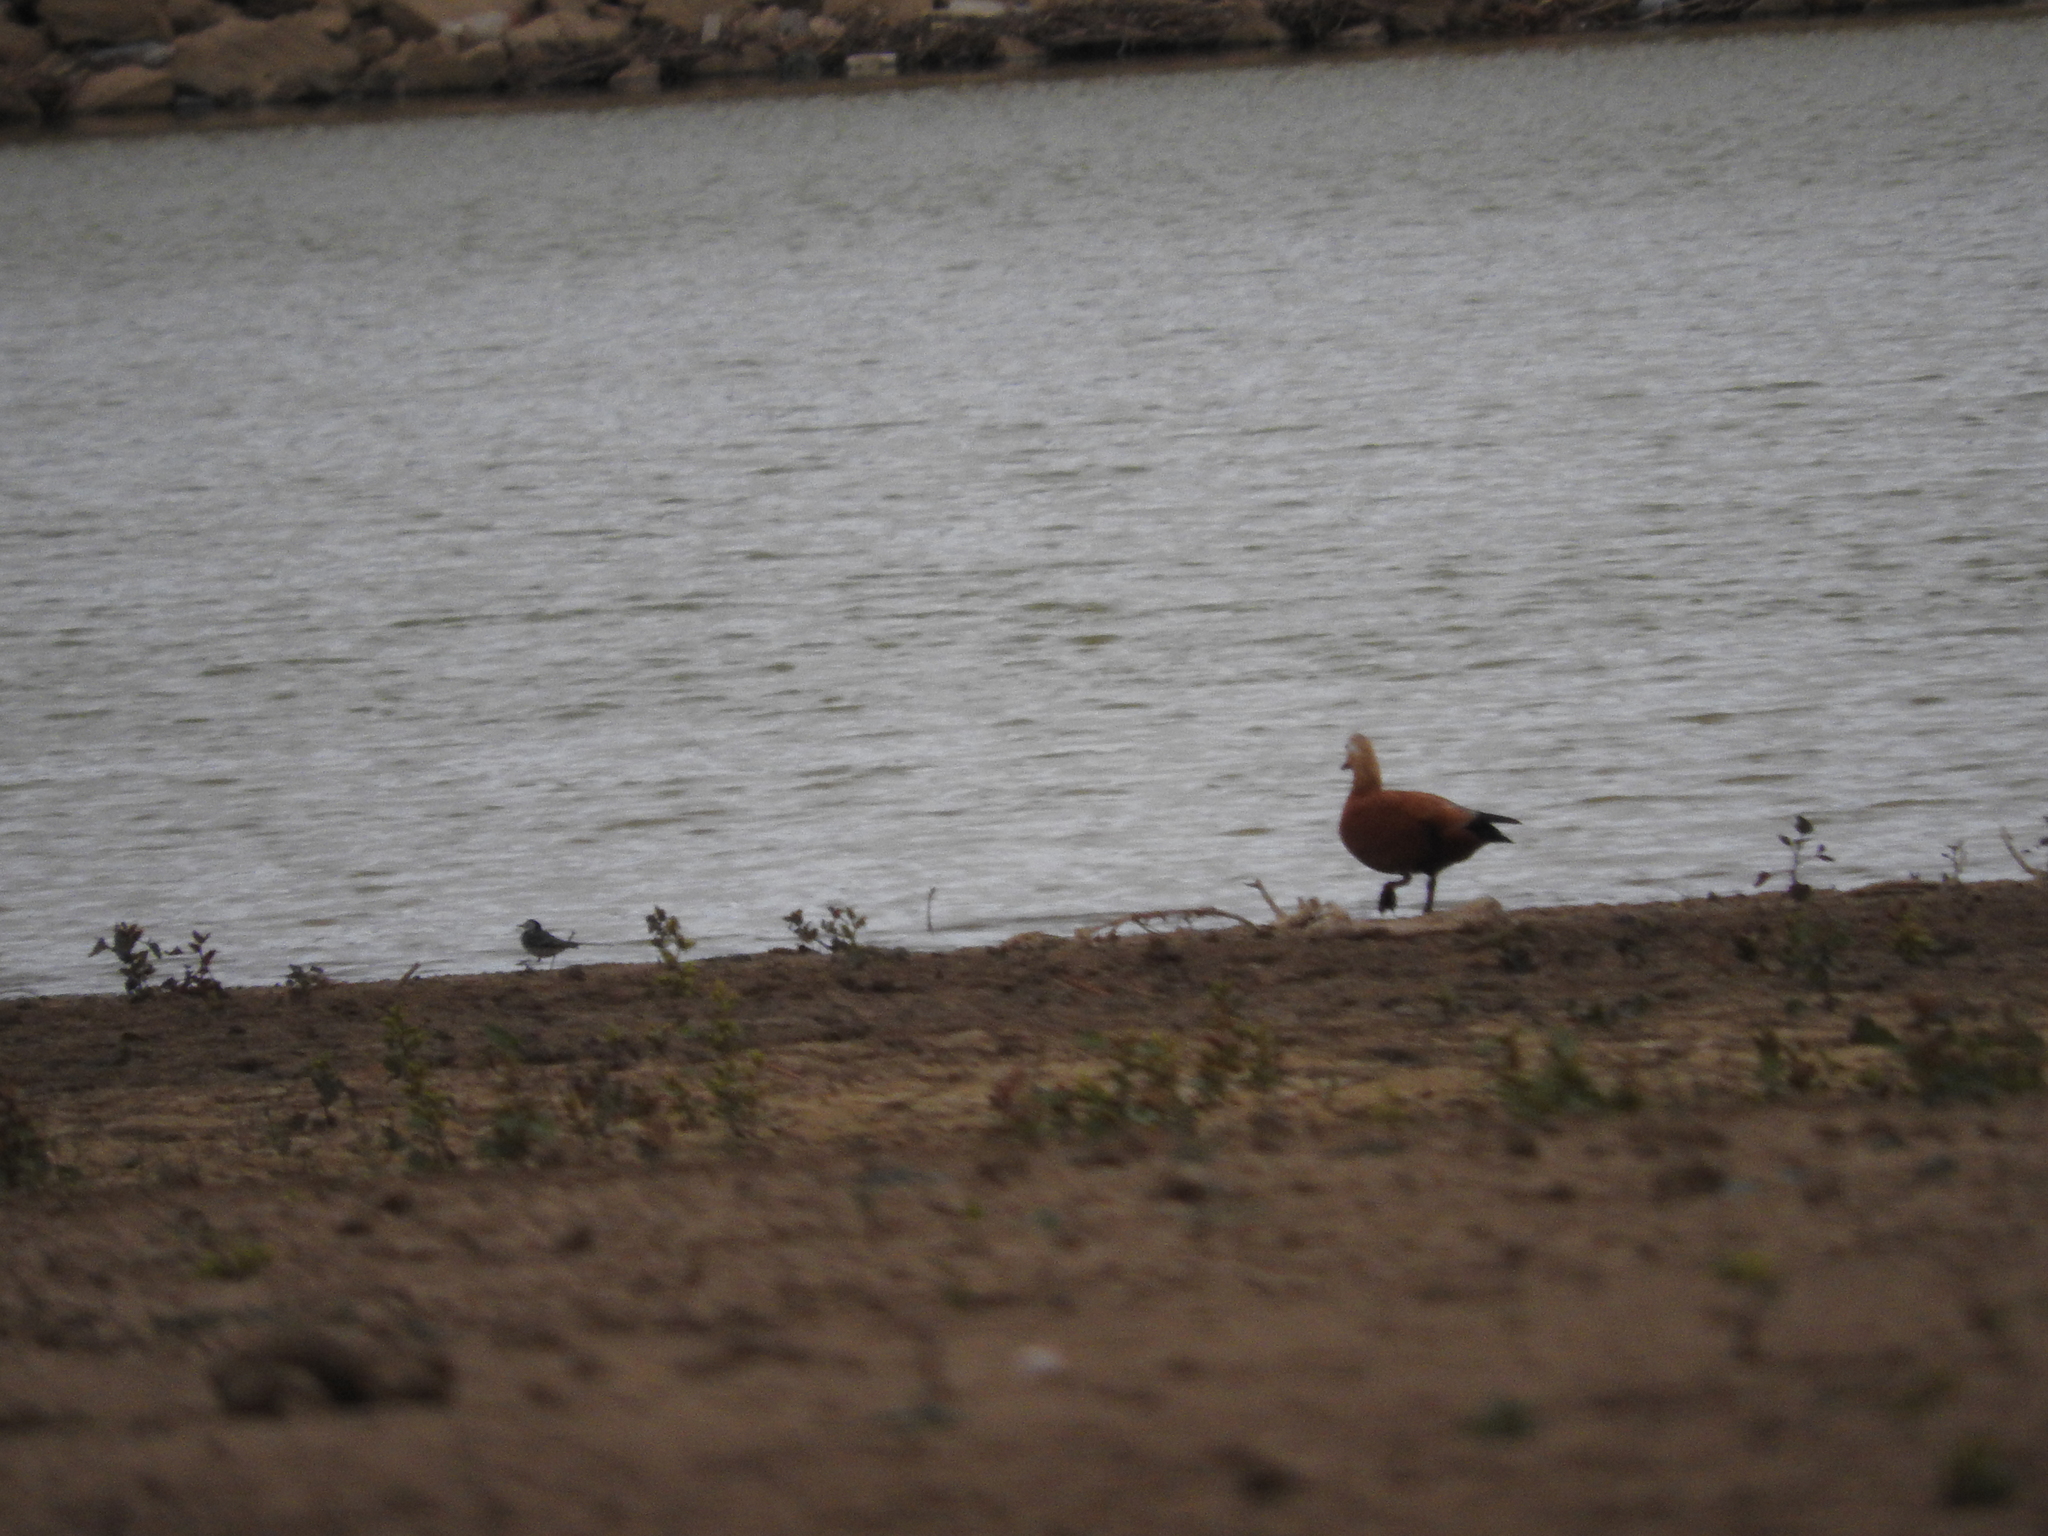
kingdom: Animalia
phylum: Chordata
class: Aves
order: Anseriformes
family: Anatidae
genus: Tadorna
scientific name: Tadorna ferruginea
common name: Ruddy shelduck
